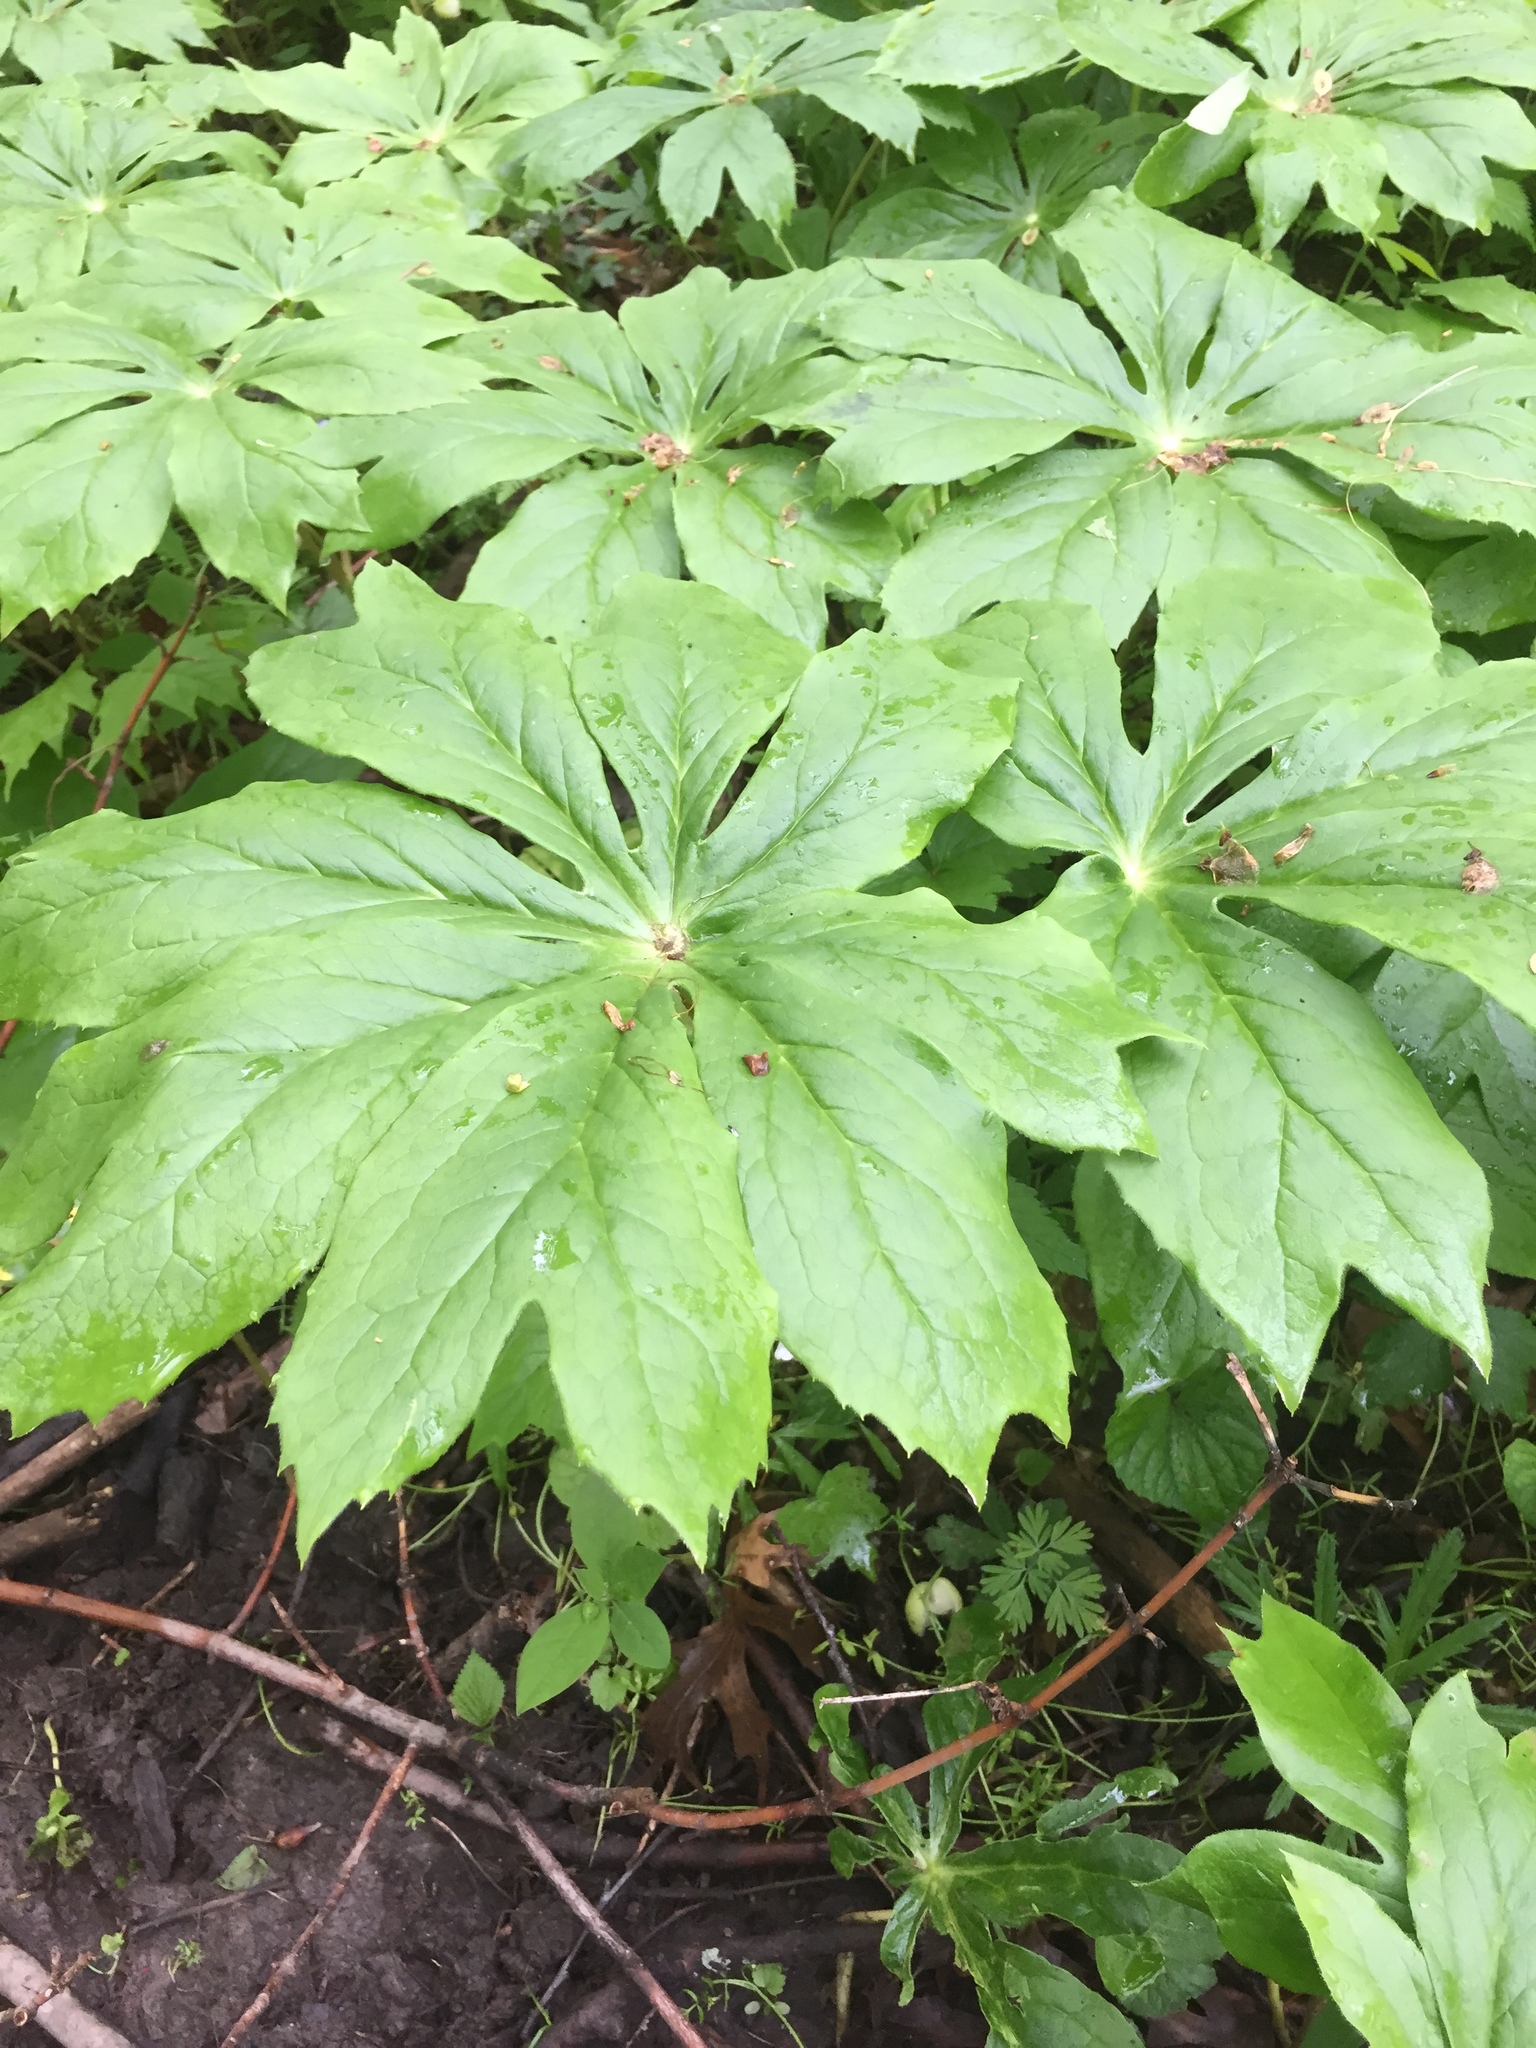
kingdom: Plantae
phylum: Tracheophyta
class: Magnoliopsida
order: Ranunculales
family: Berberidaceae
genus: Podophyllum
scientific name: Podophyllum peltatum
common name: Wild mandrake
